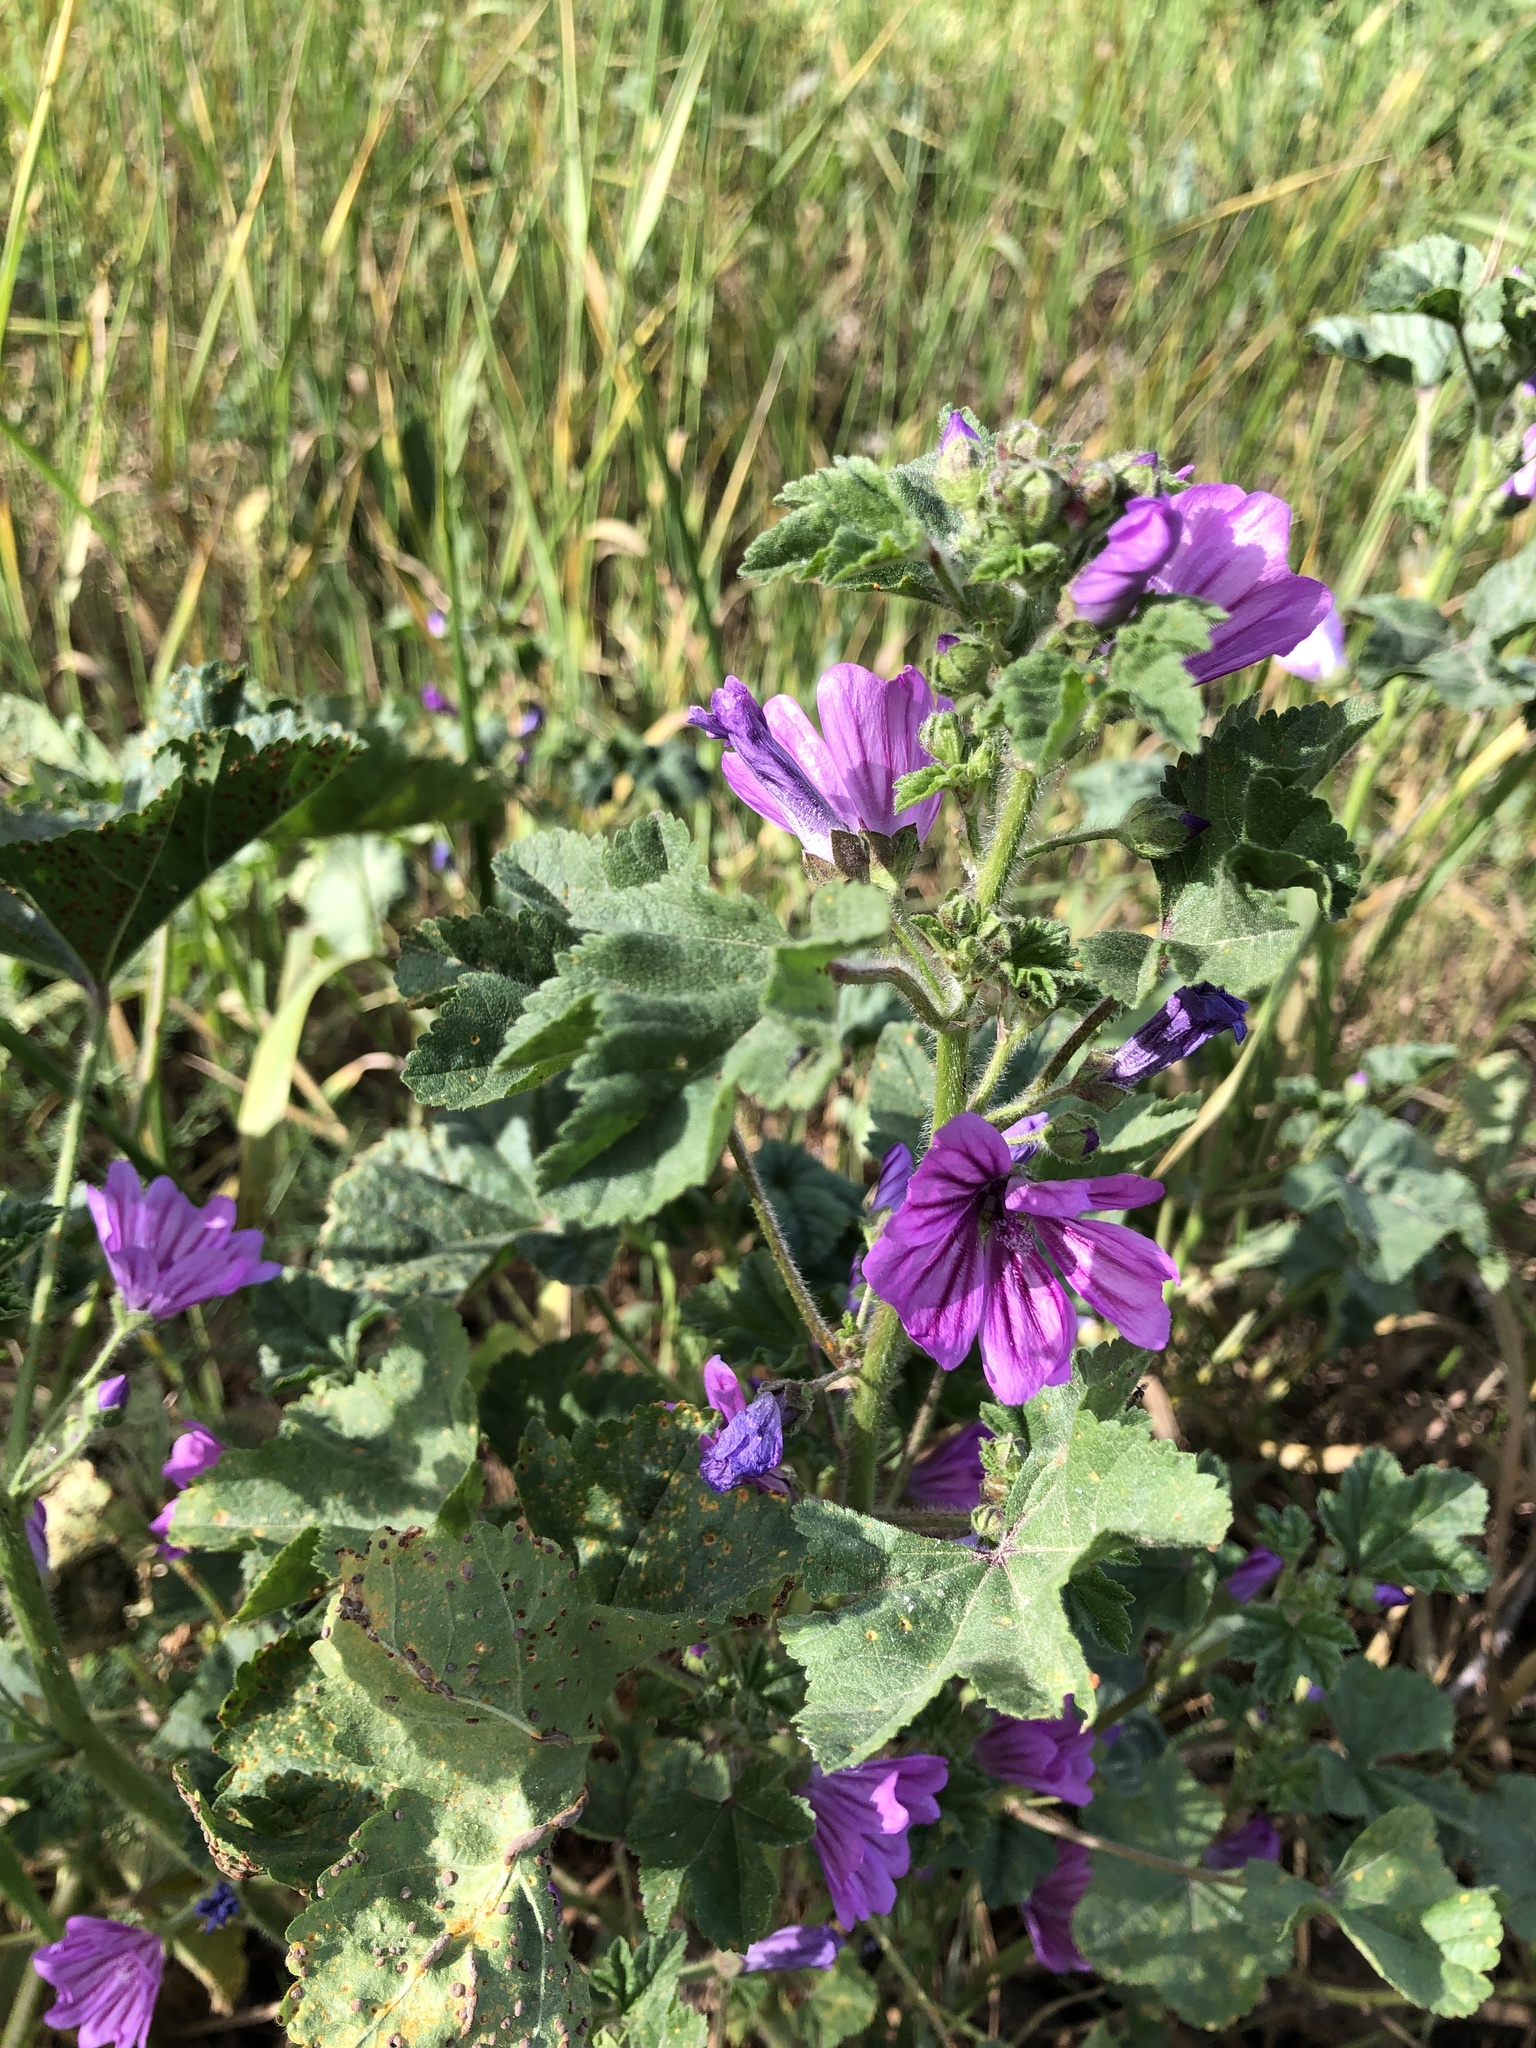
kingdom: Plantae
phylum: Tracheophyta
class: Magnoliopsida
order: Malvales
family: Malvaceae
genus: Malva
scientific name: Malva sylvestris
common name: Common mallow
